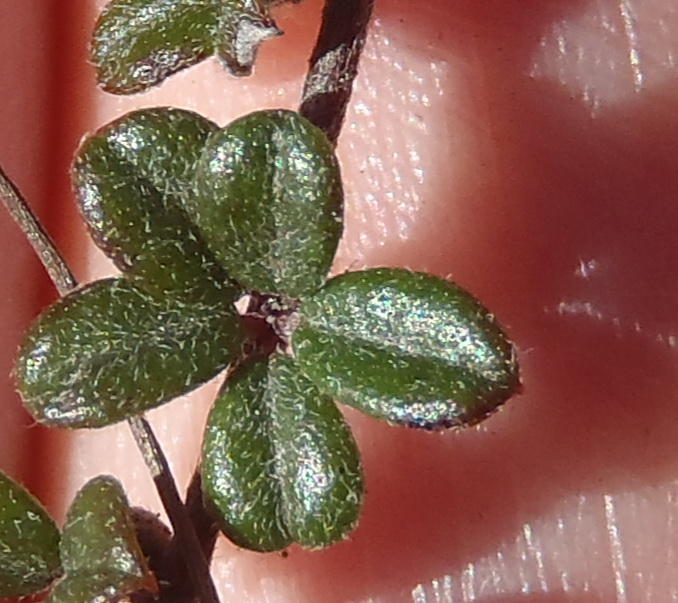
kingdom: Plantae
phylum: Tracheophyta
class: Magnoliopsida
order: Fabales
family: Fabaceae
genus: Indigofera
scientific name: Indigofera
